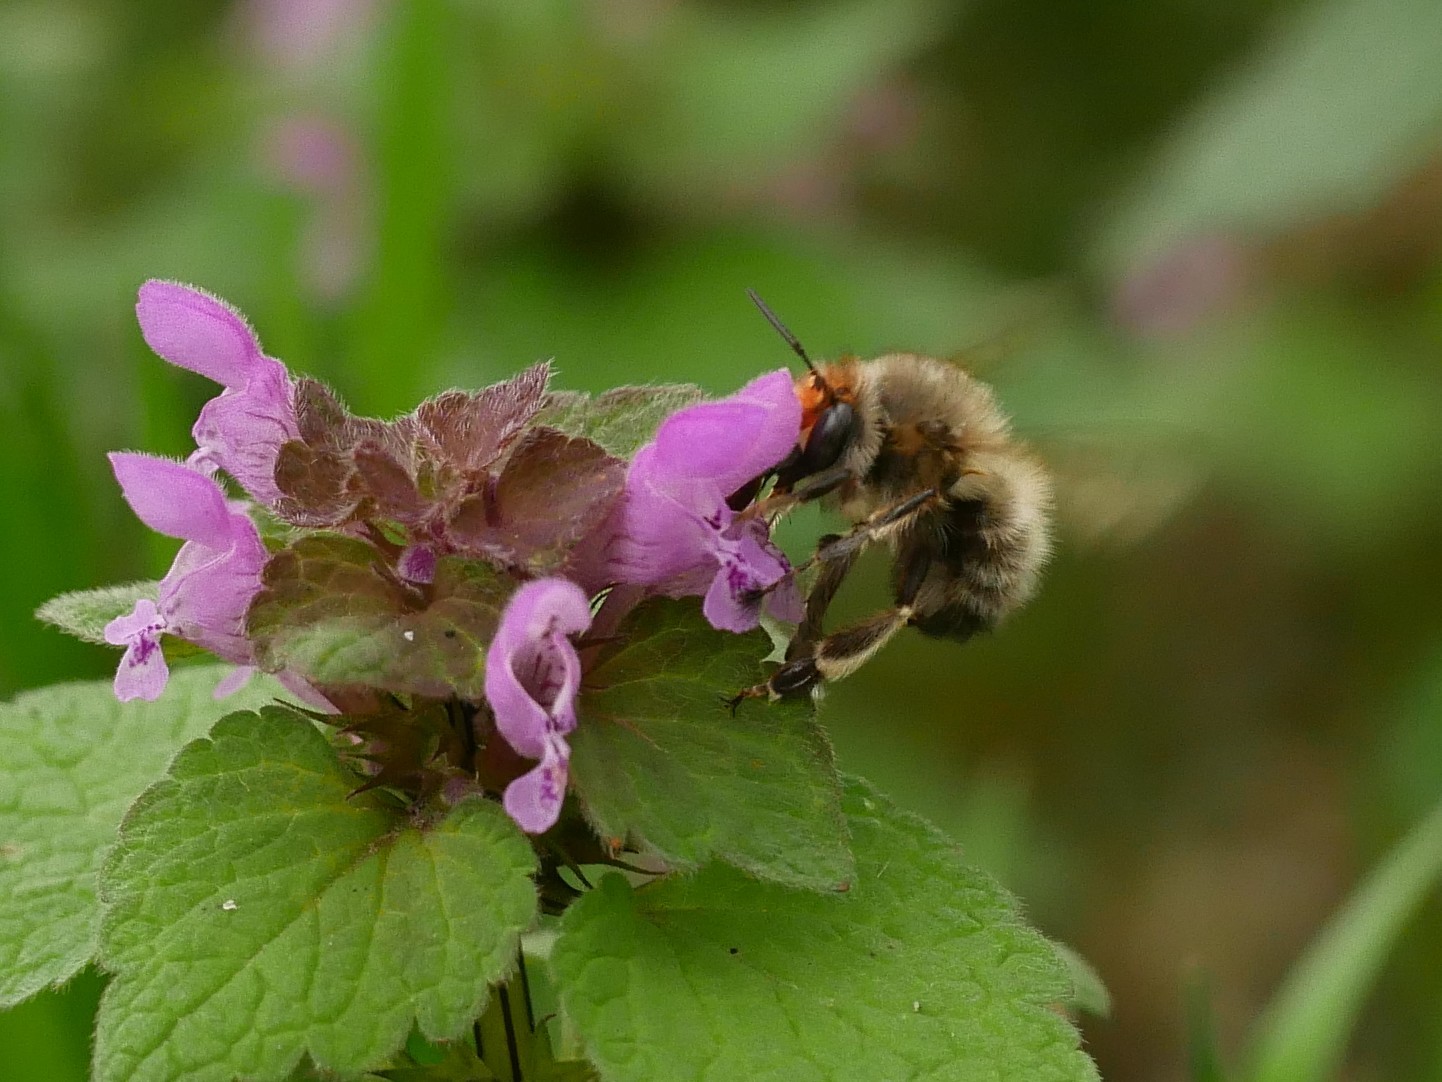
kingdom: Animalia
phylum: Arthropoda
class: Insecta
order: Hymenoptera
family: Apidae
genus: Anthophora
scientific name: Anthophora plumipes
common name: Hairy-footed flower bee
